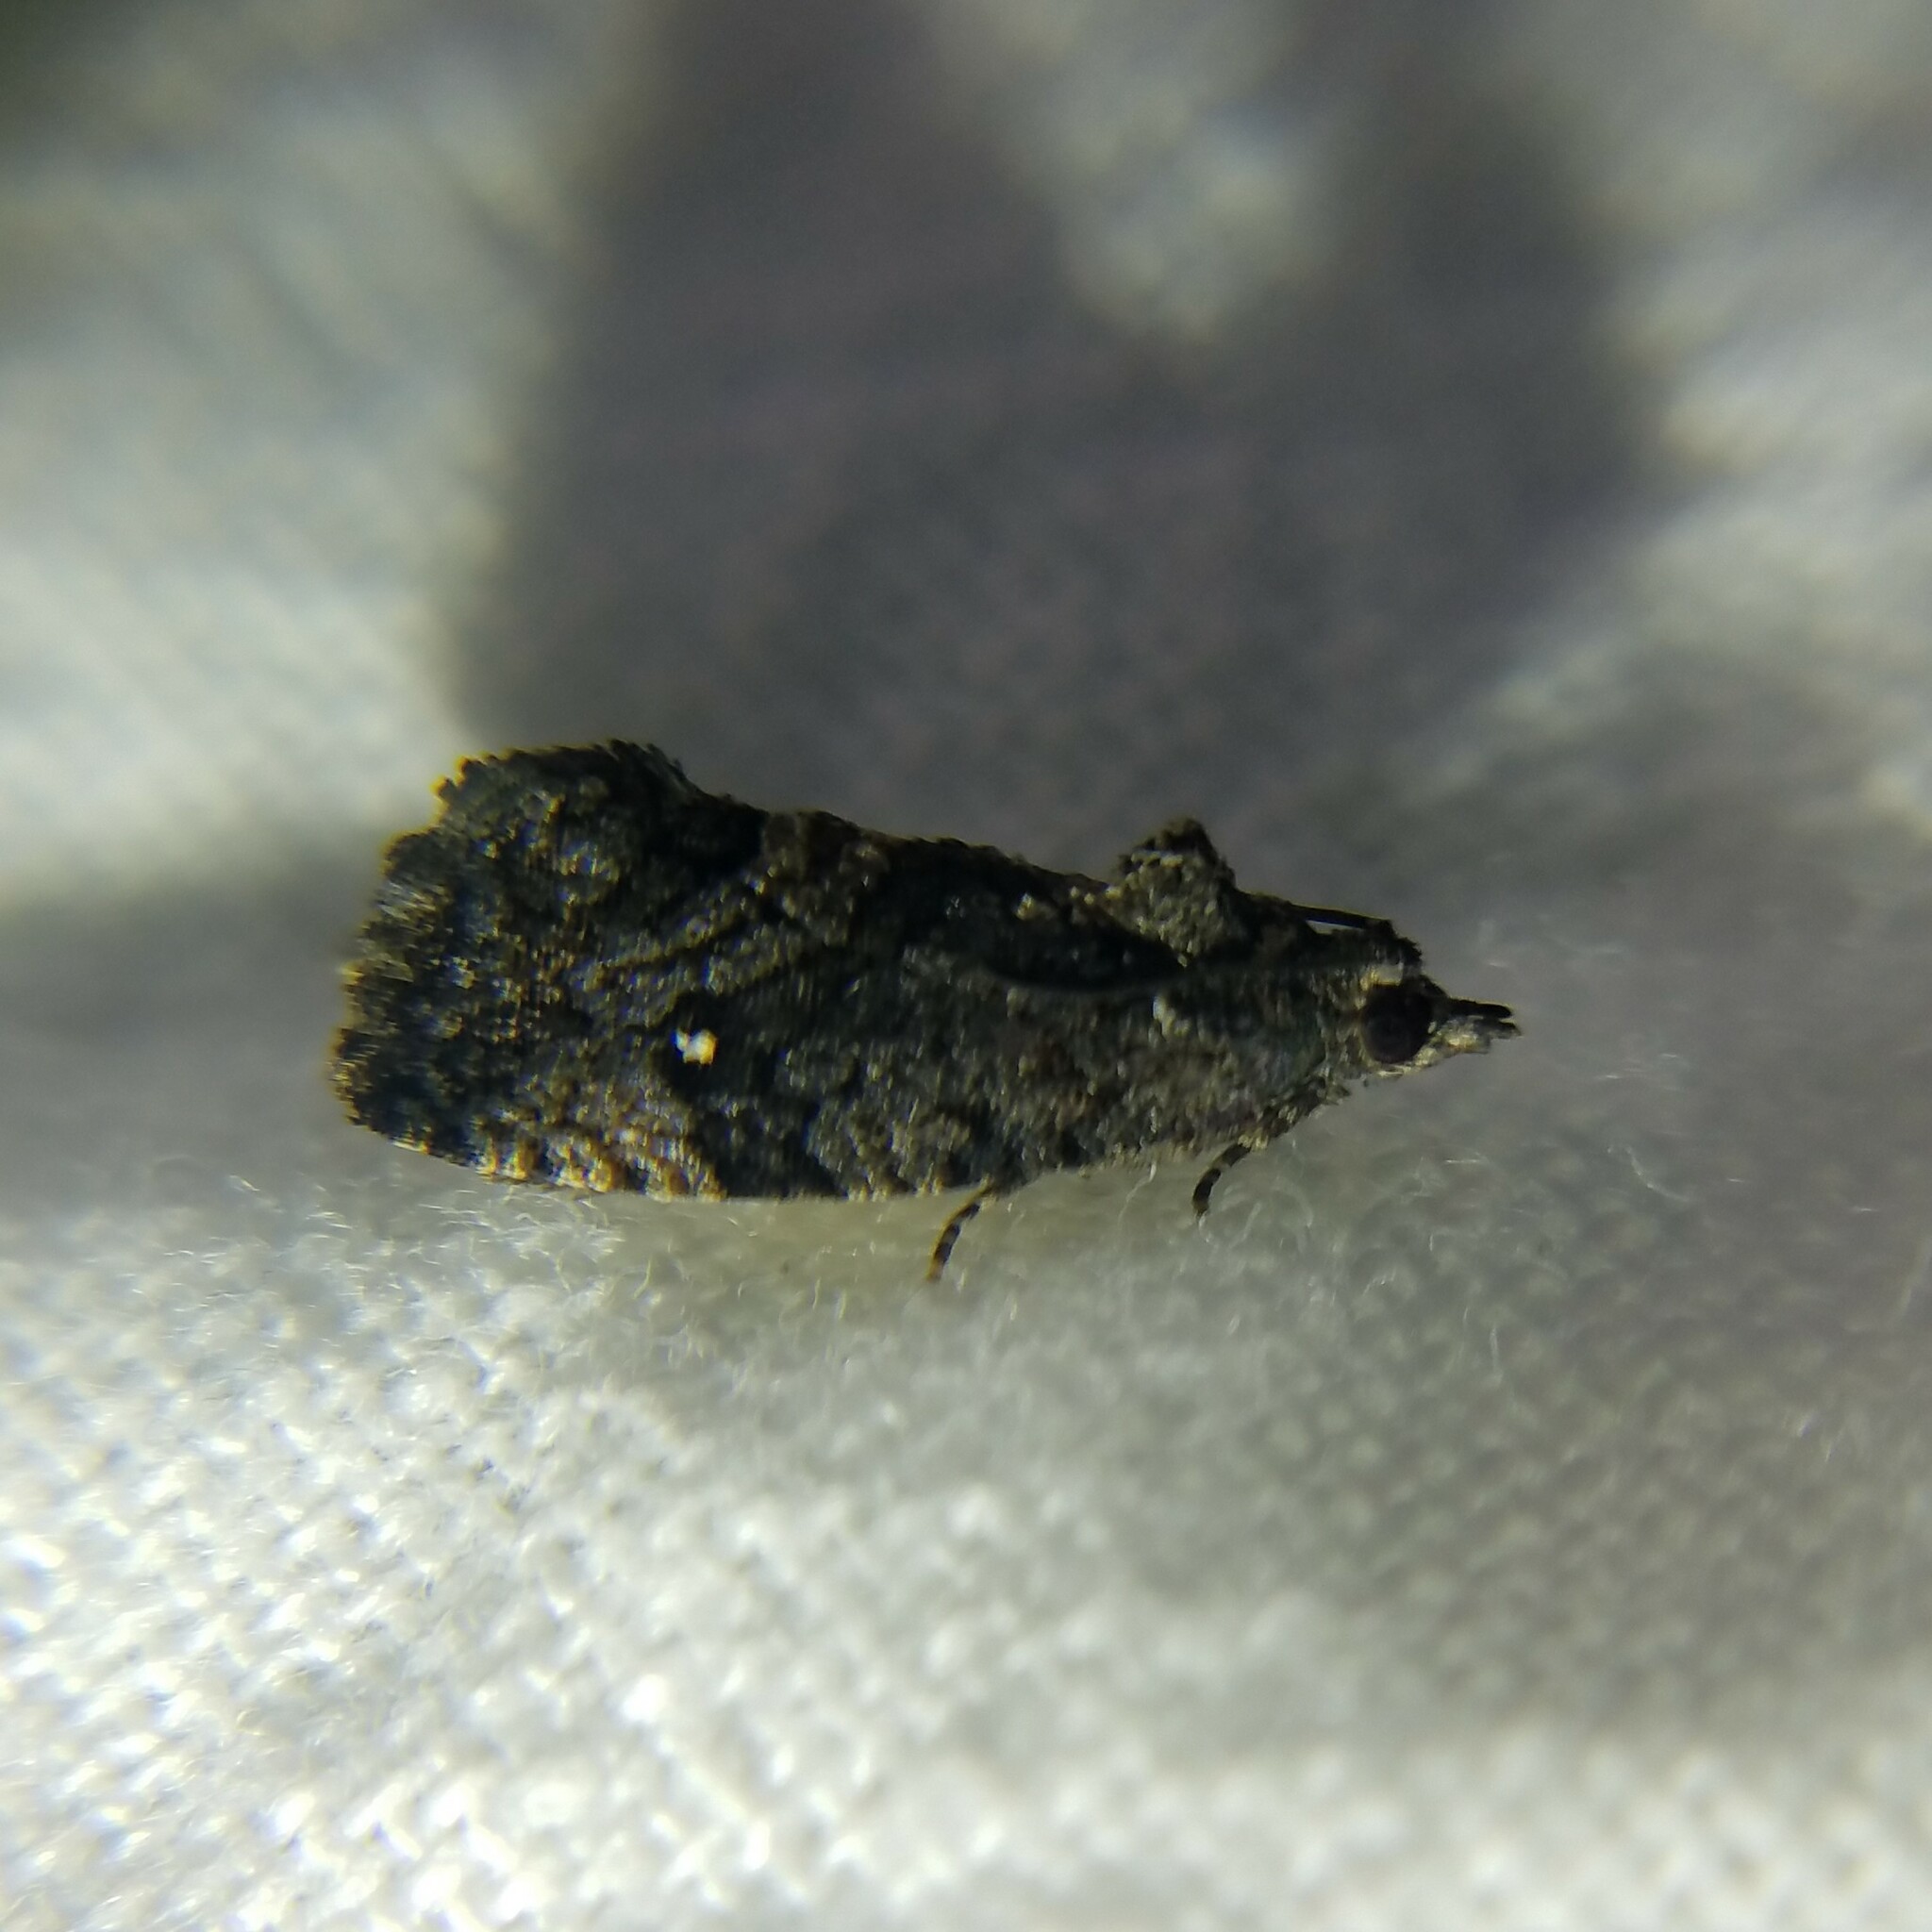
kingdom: Animalia
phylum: Arthropoda
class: Insecta
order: Lepidoptera
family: Tortricidae
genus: Gymnandrosoma
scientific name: Gymnandrosoma punctidiscanum
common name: Dotted ecdytolopha moth
